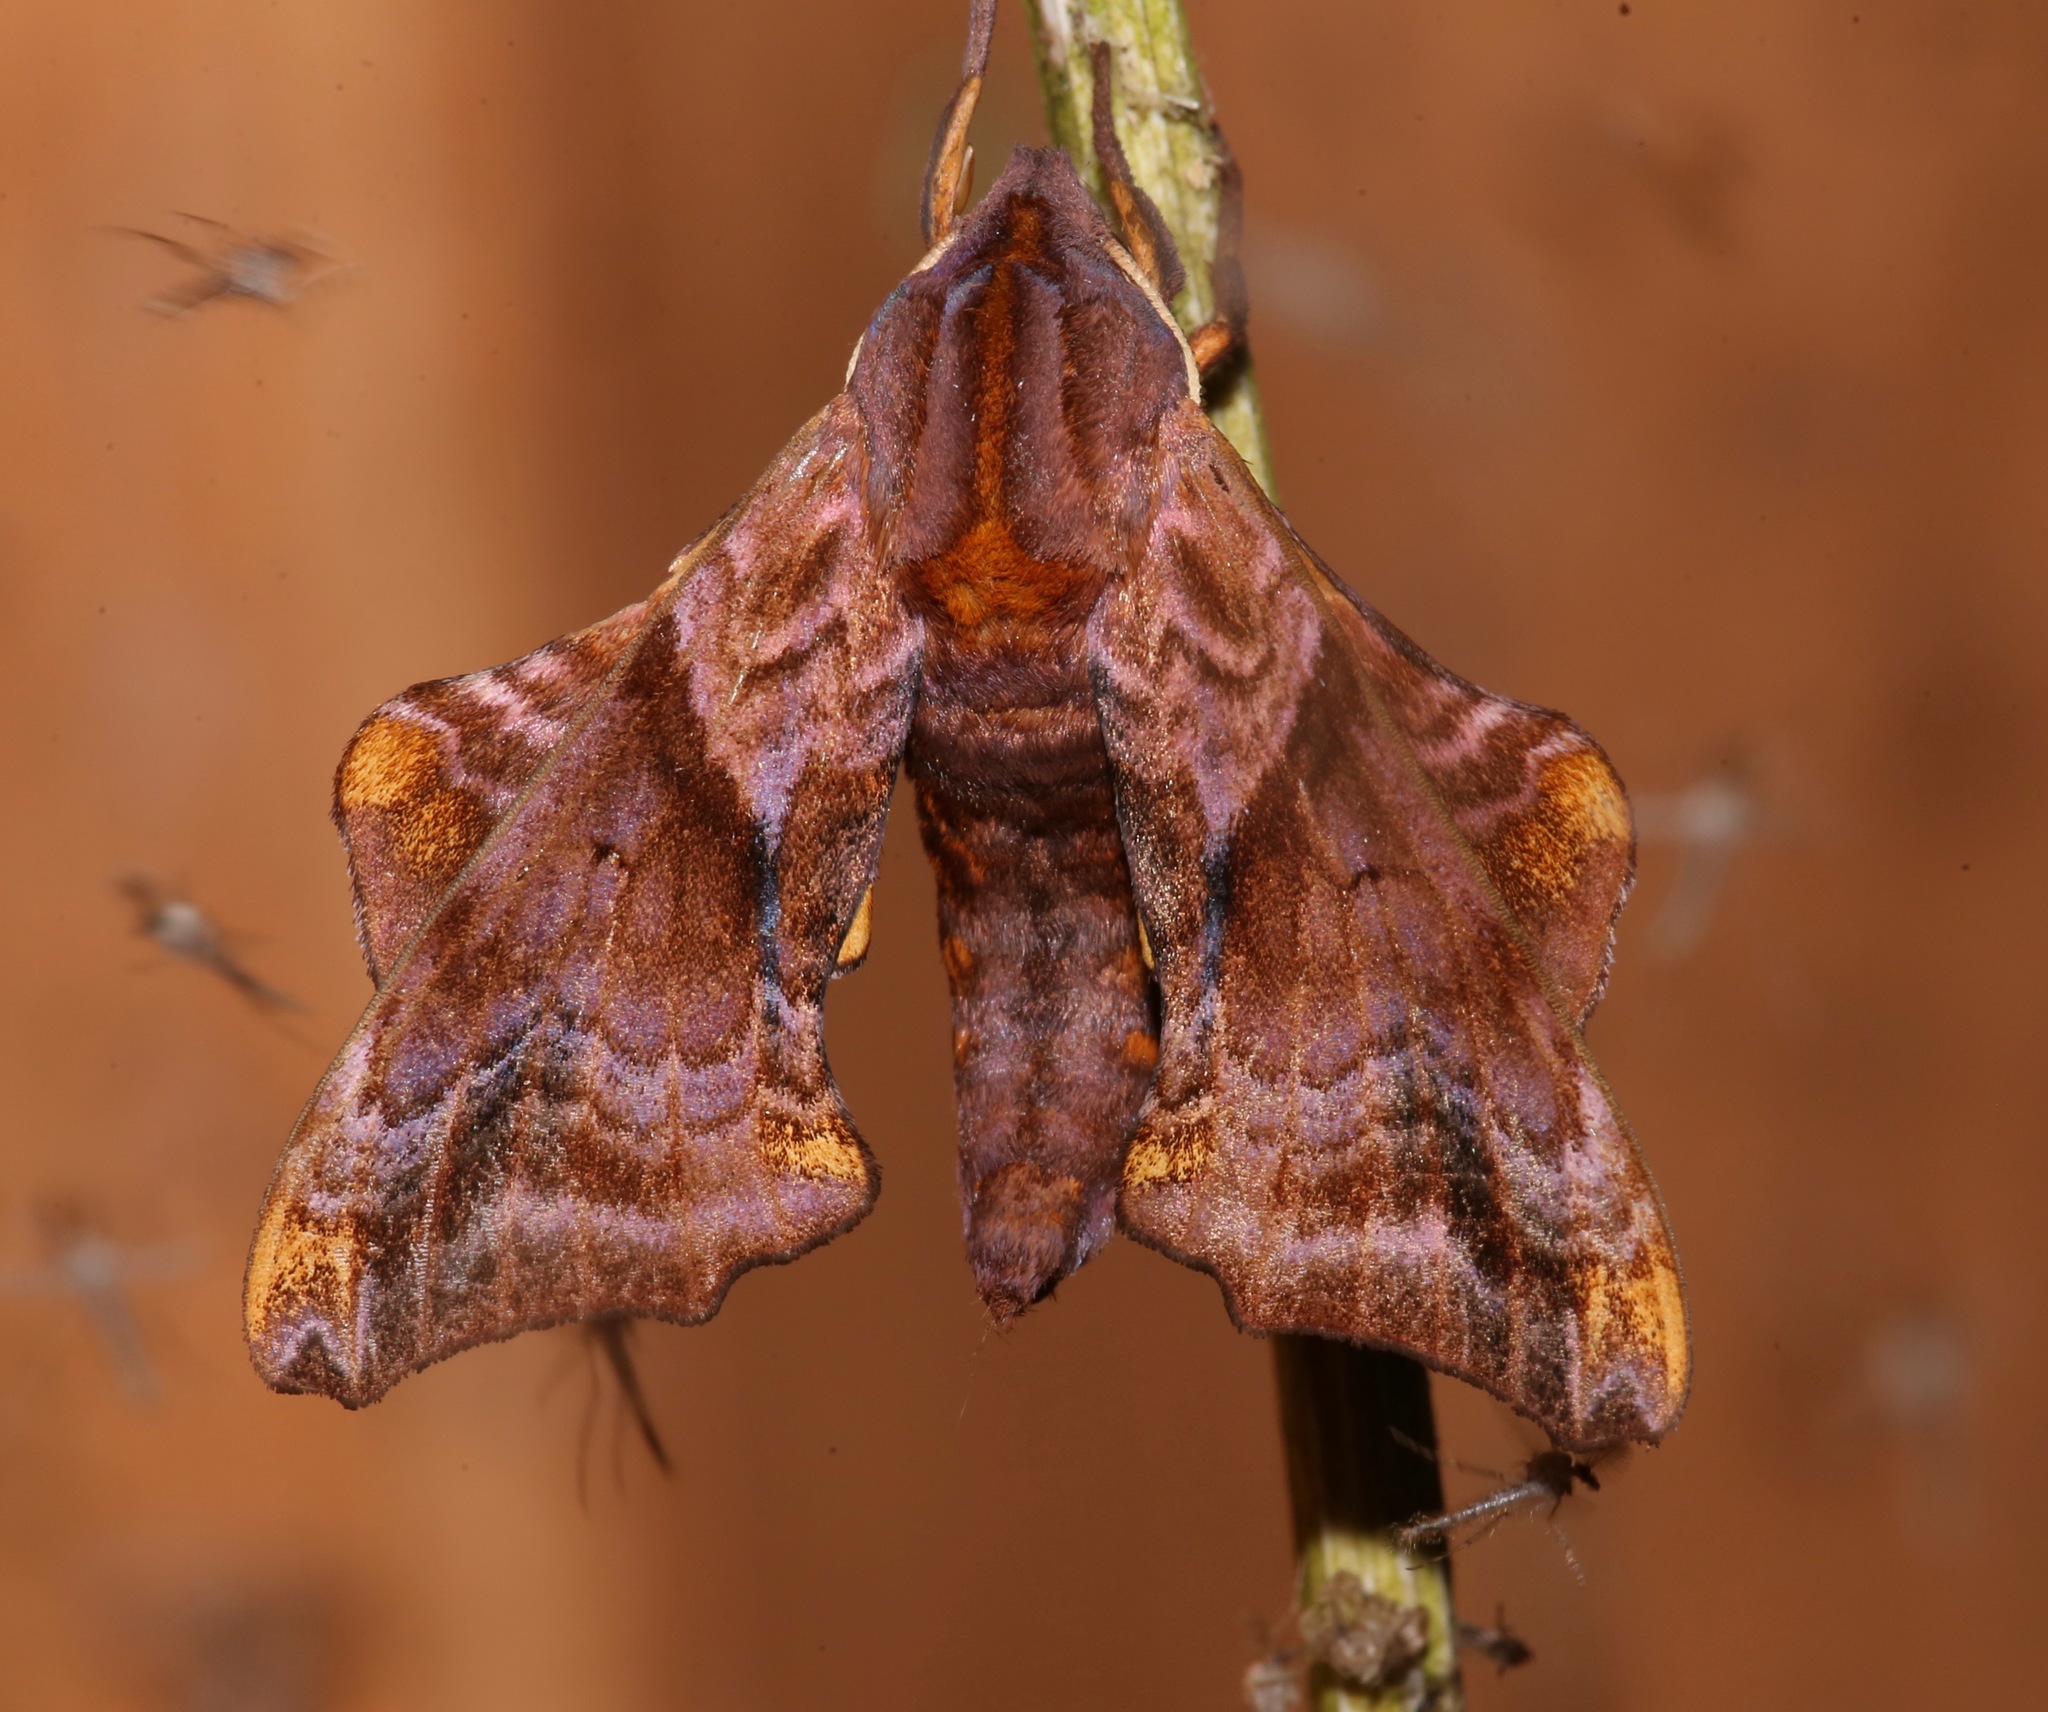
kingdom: Animalia
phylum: Arthropoda
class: Insecta
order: Lepidoptera
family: Sphingidae
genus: Paonias
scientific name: Paonias myops
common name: Small-eyed sphinx
